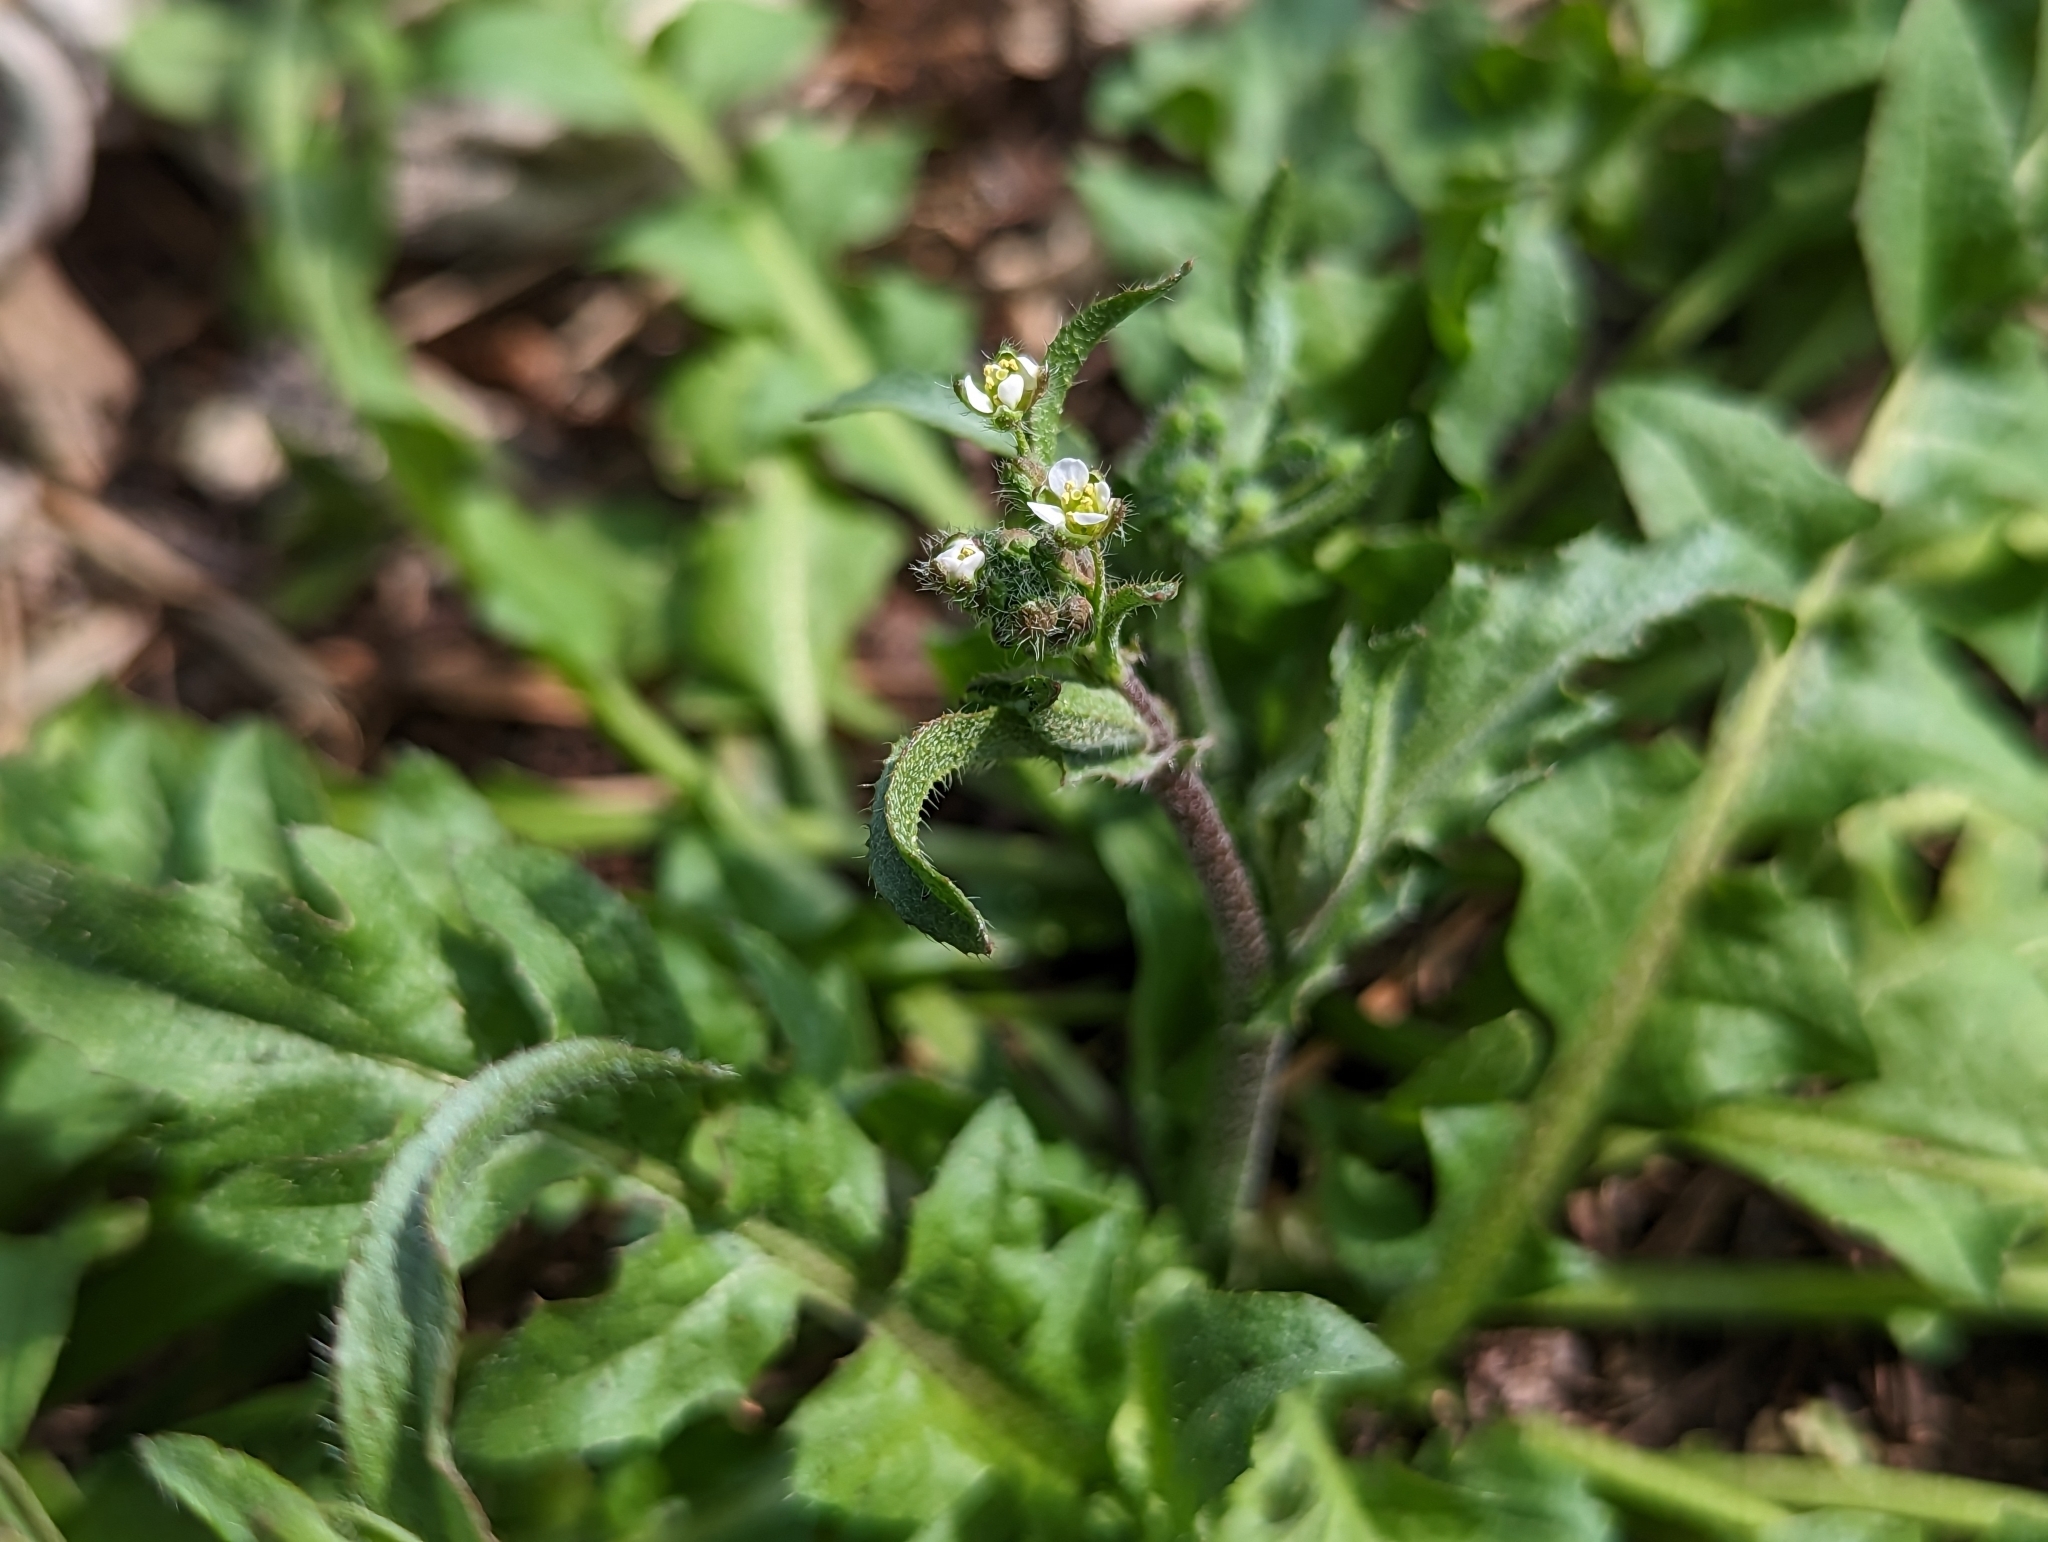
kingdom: Plantae
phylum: Tracheophyta
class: Magnoliopsida
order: Brassicales
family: Brassicaceae
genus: Capsella
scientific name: Capsella bursa-pastoris
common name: Shepherd's purse
